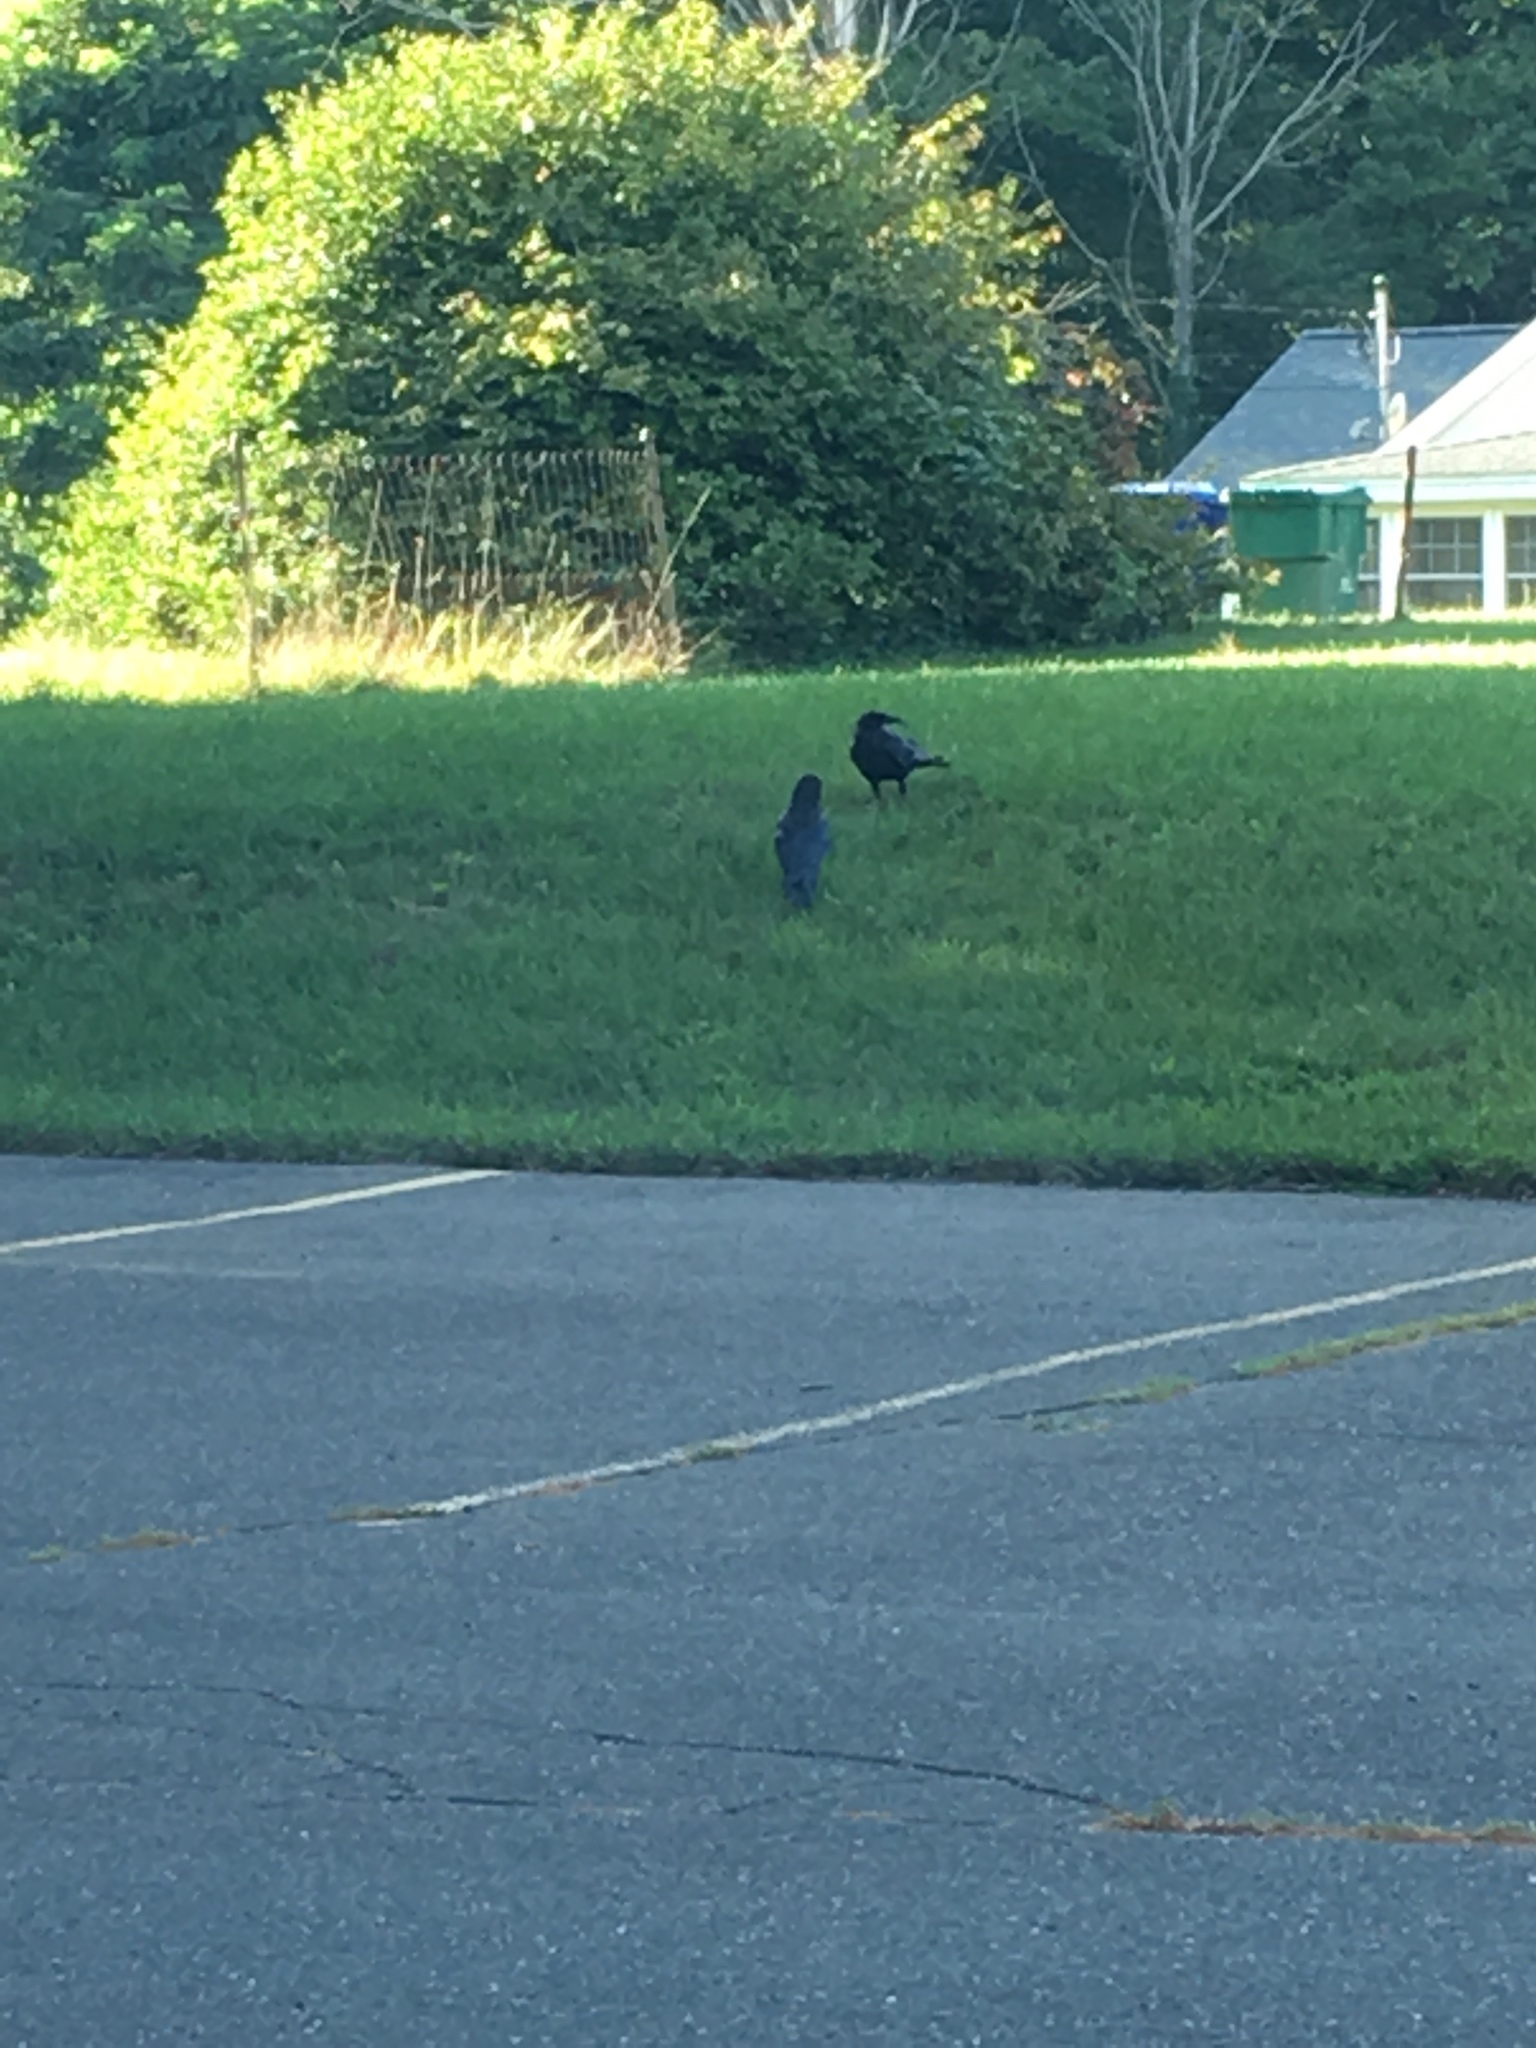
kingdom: Animalia
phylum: Chordata
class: Aves
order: Passeriformes
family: Corvidae
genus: Corvus
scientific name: Corvus brachyrhynchos
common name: American crow
